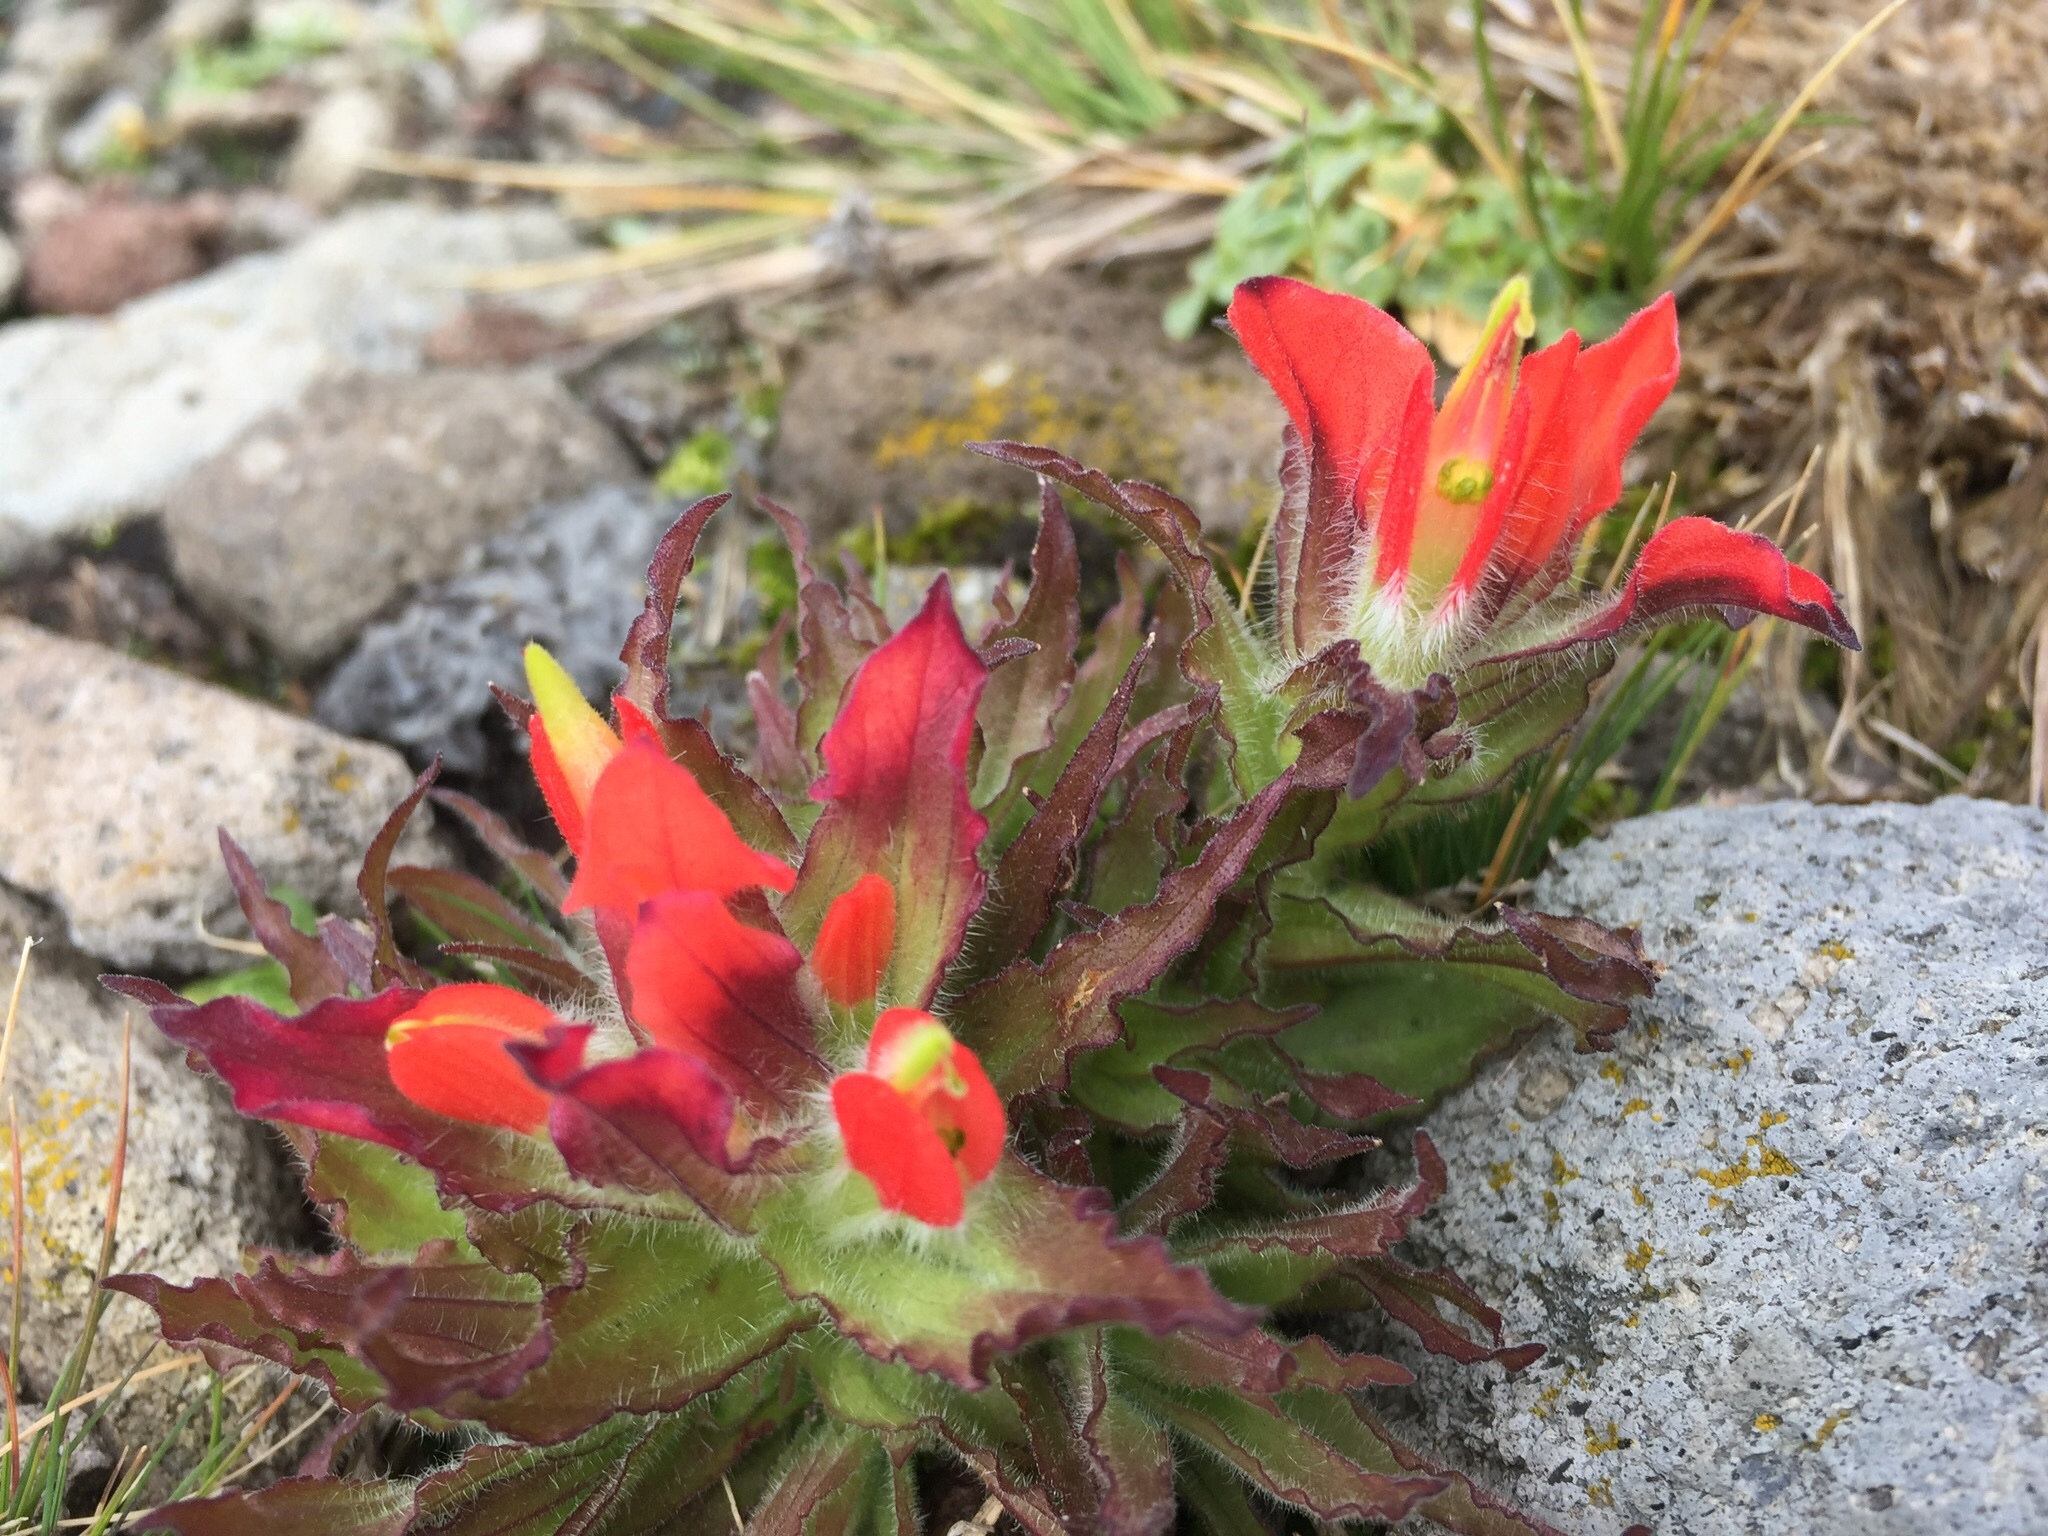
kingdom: Plantae
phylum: Tracheophyta
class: Magnoliopsida
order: Lamiales
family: Orobanchaceae
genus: Castilleja
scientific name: Castilleja scorzonerifolia
